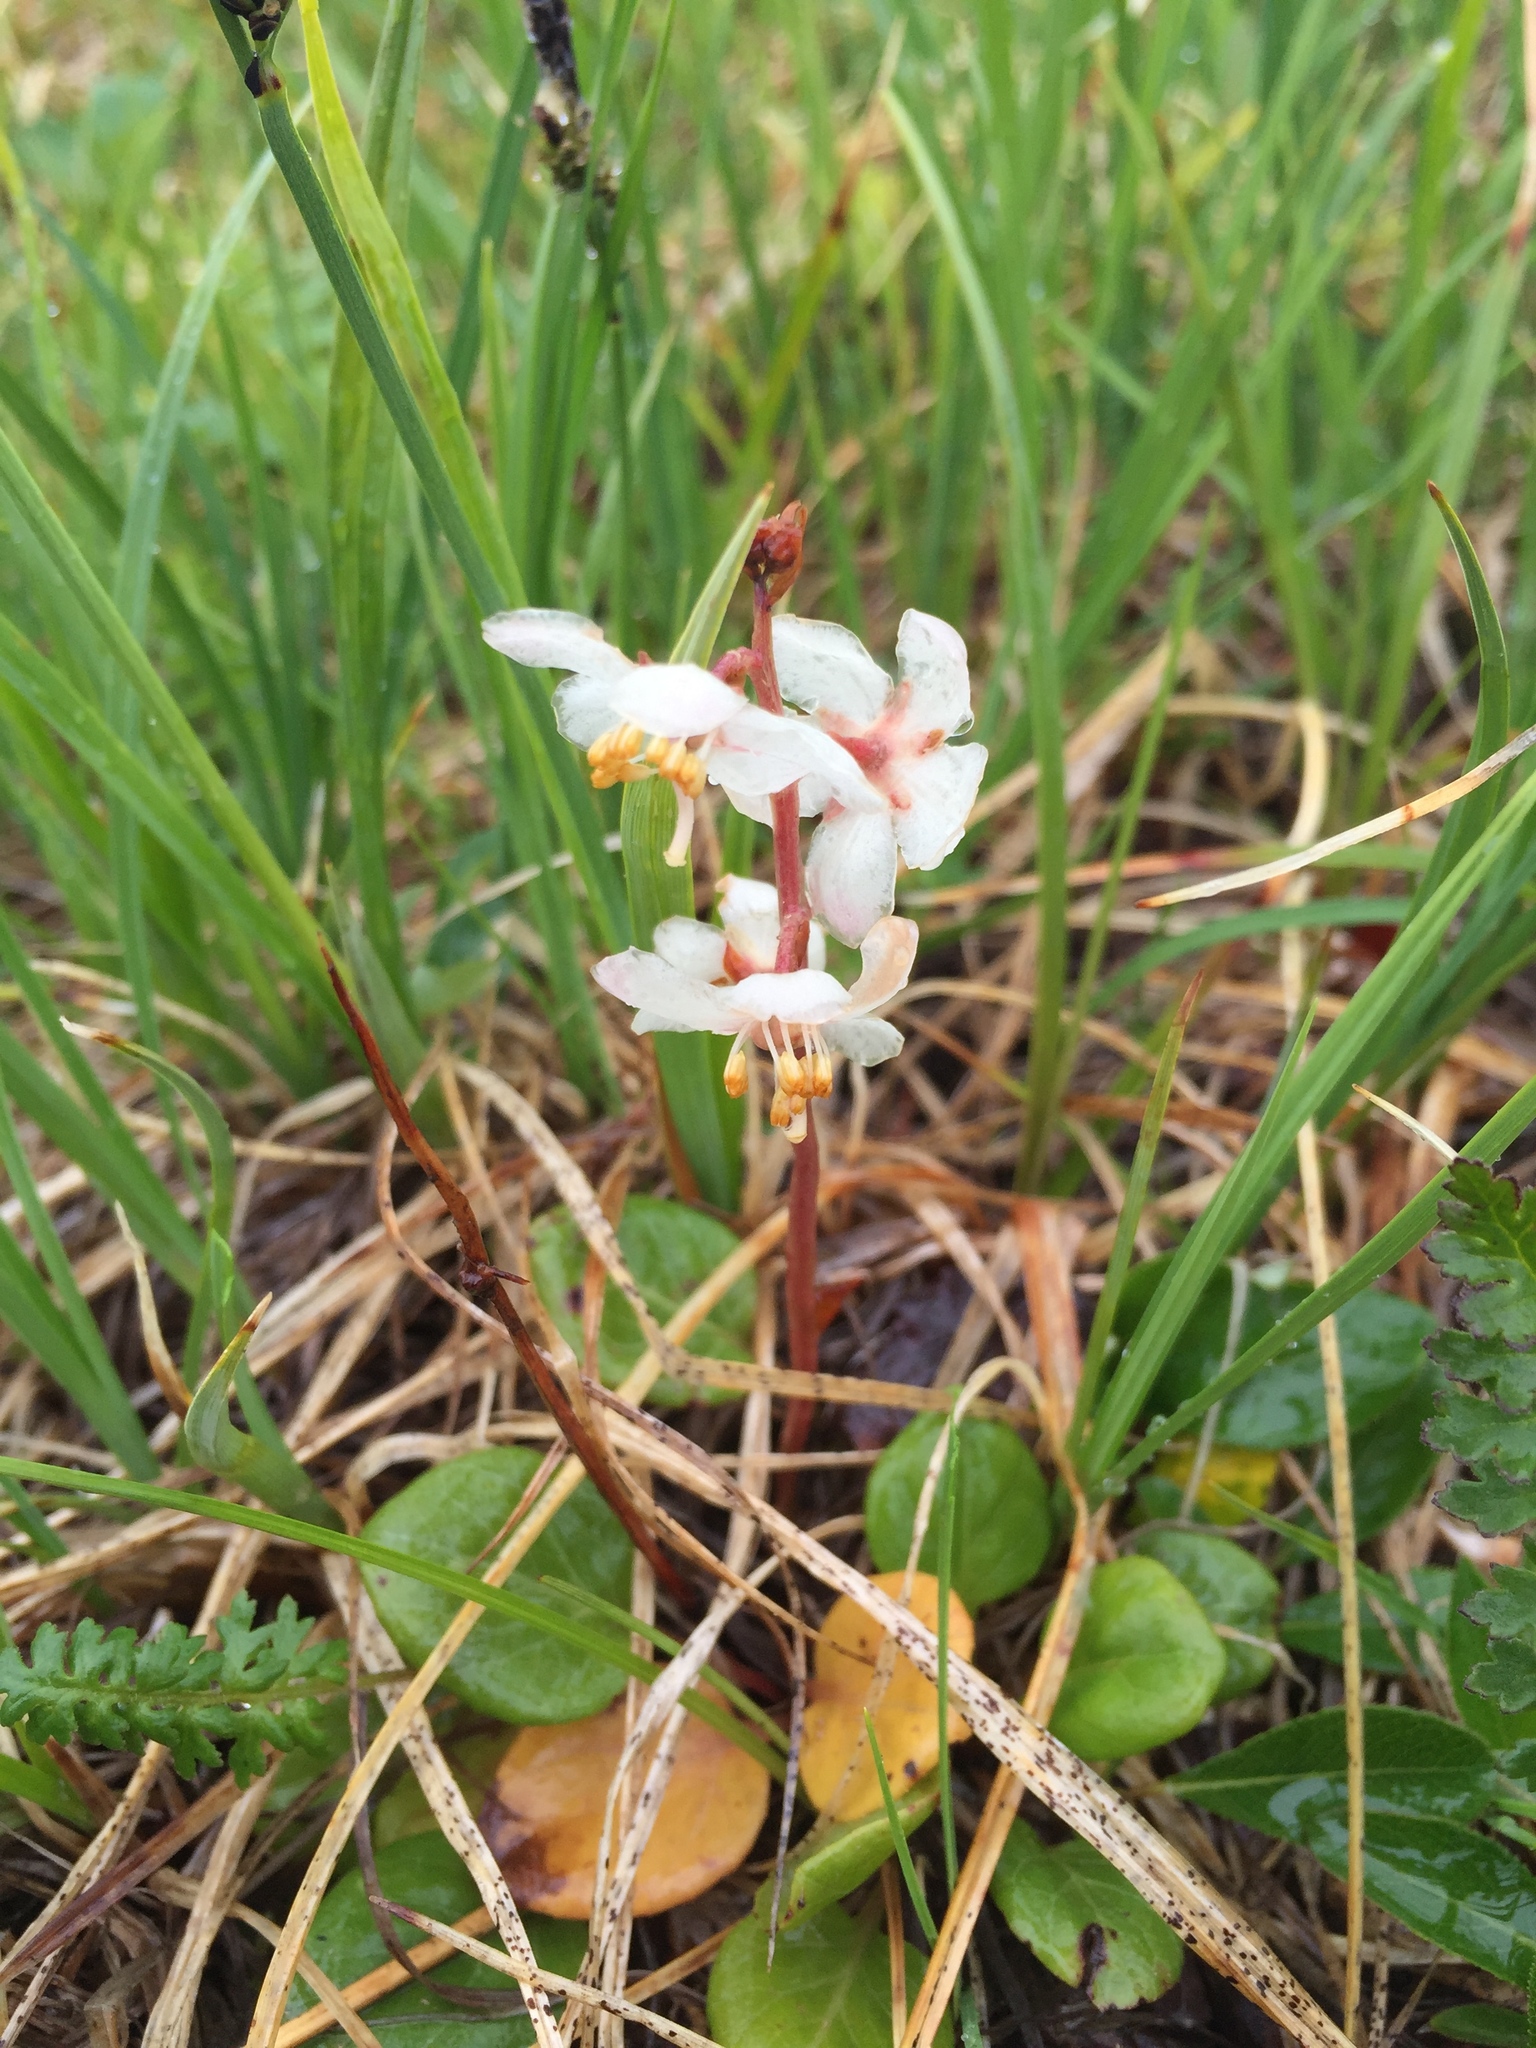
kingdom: Plantae
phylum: Tracheophyta
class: Magnoliopsida
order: Ericales
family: Ericaceae
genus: Pyrola
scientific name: Pyrola grandiflora
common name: Arctic pyrola
